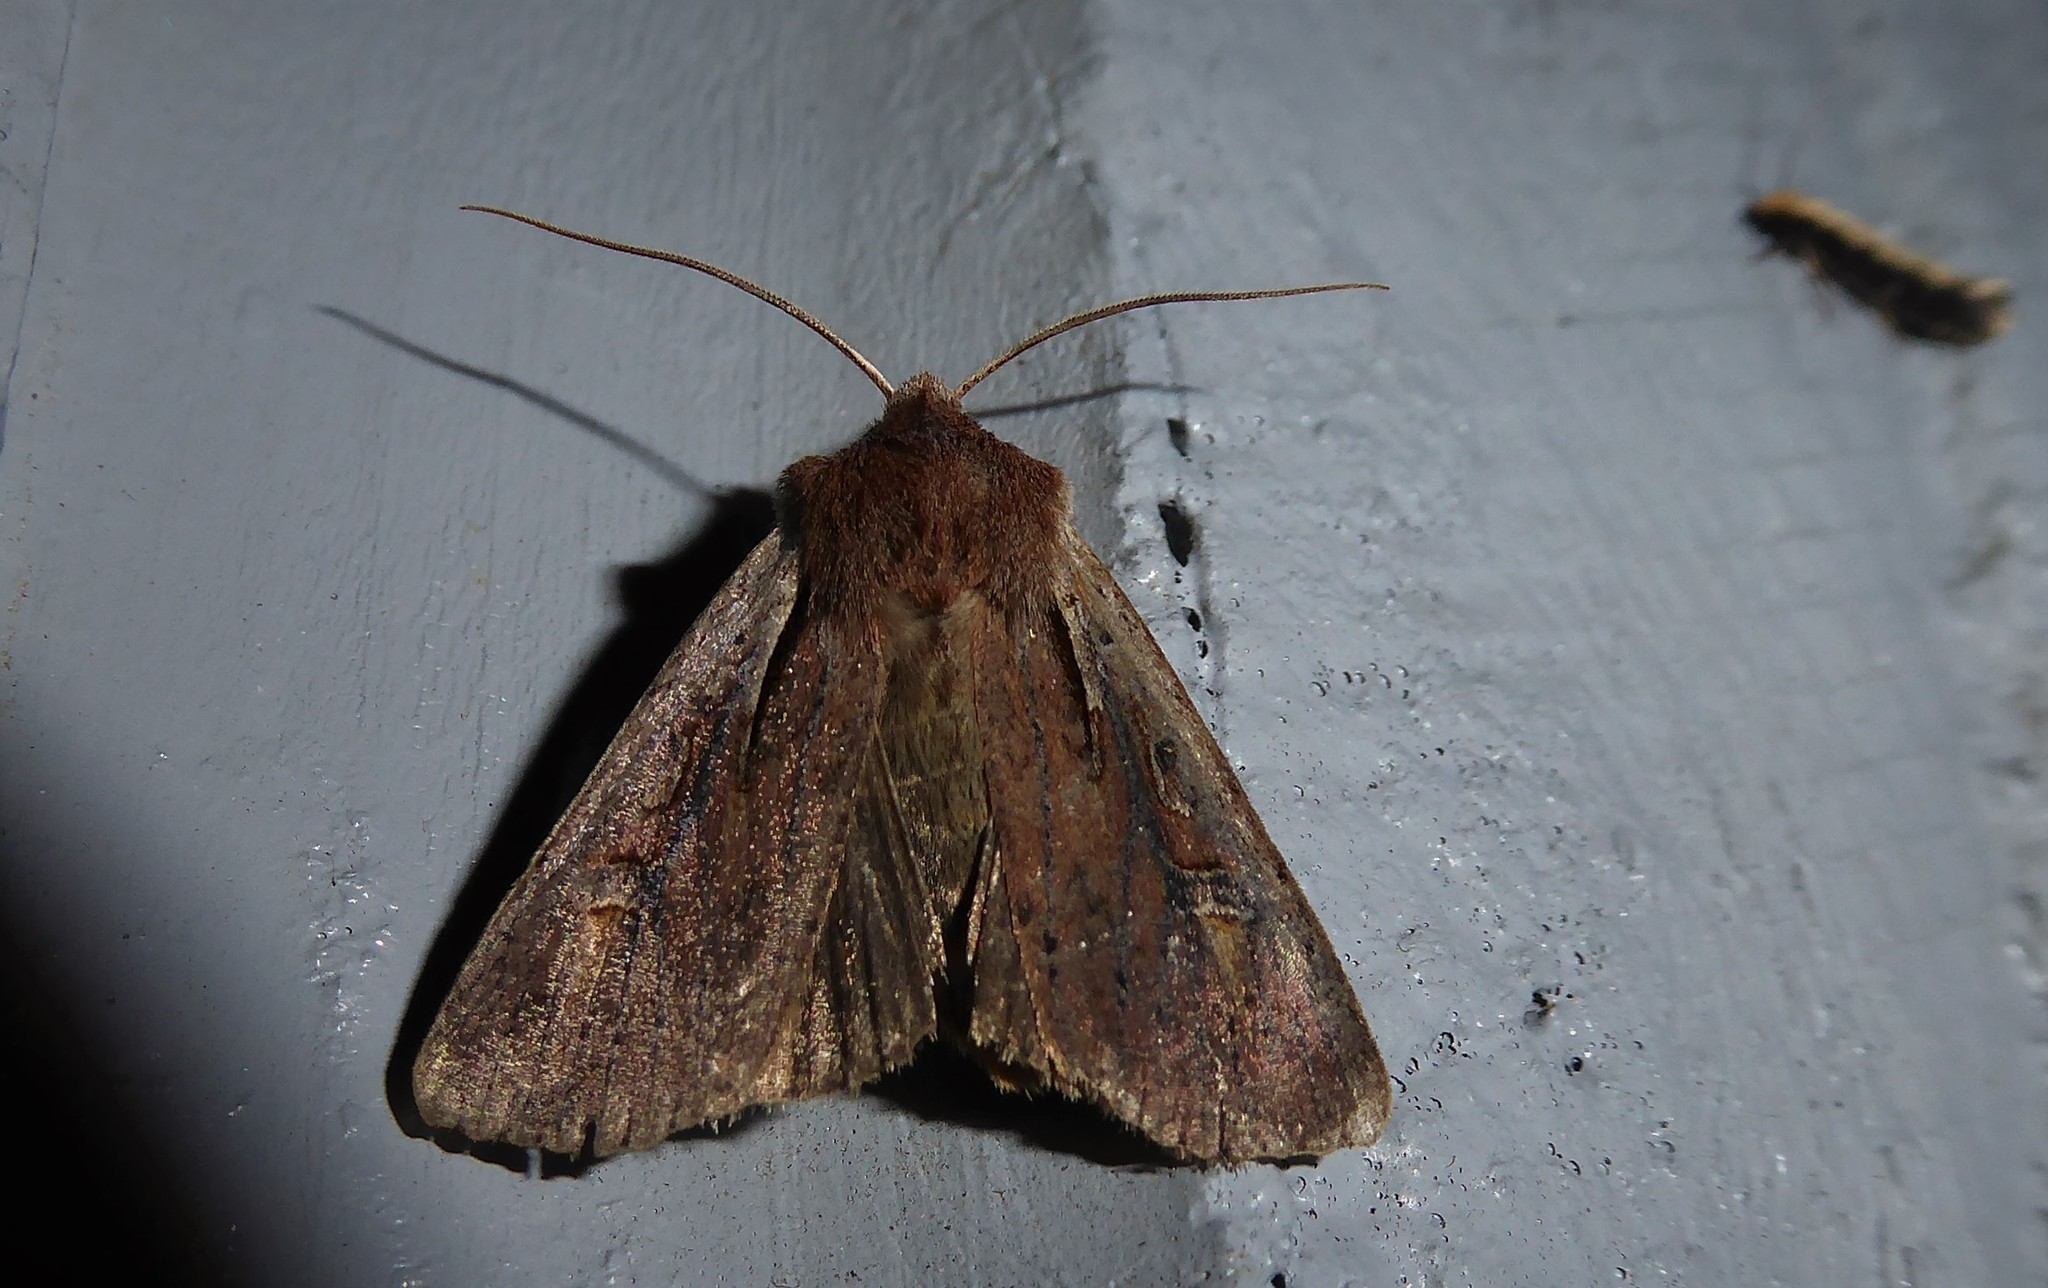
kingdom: Animalia
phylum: Arthropoda
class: Insecta
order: Lepidoptera
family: Noctuidae
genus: Ichneutica
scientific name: Ichneutica atristriga
